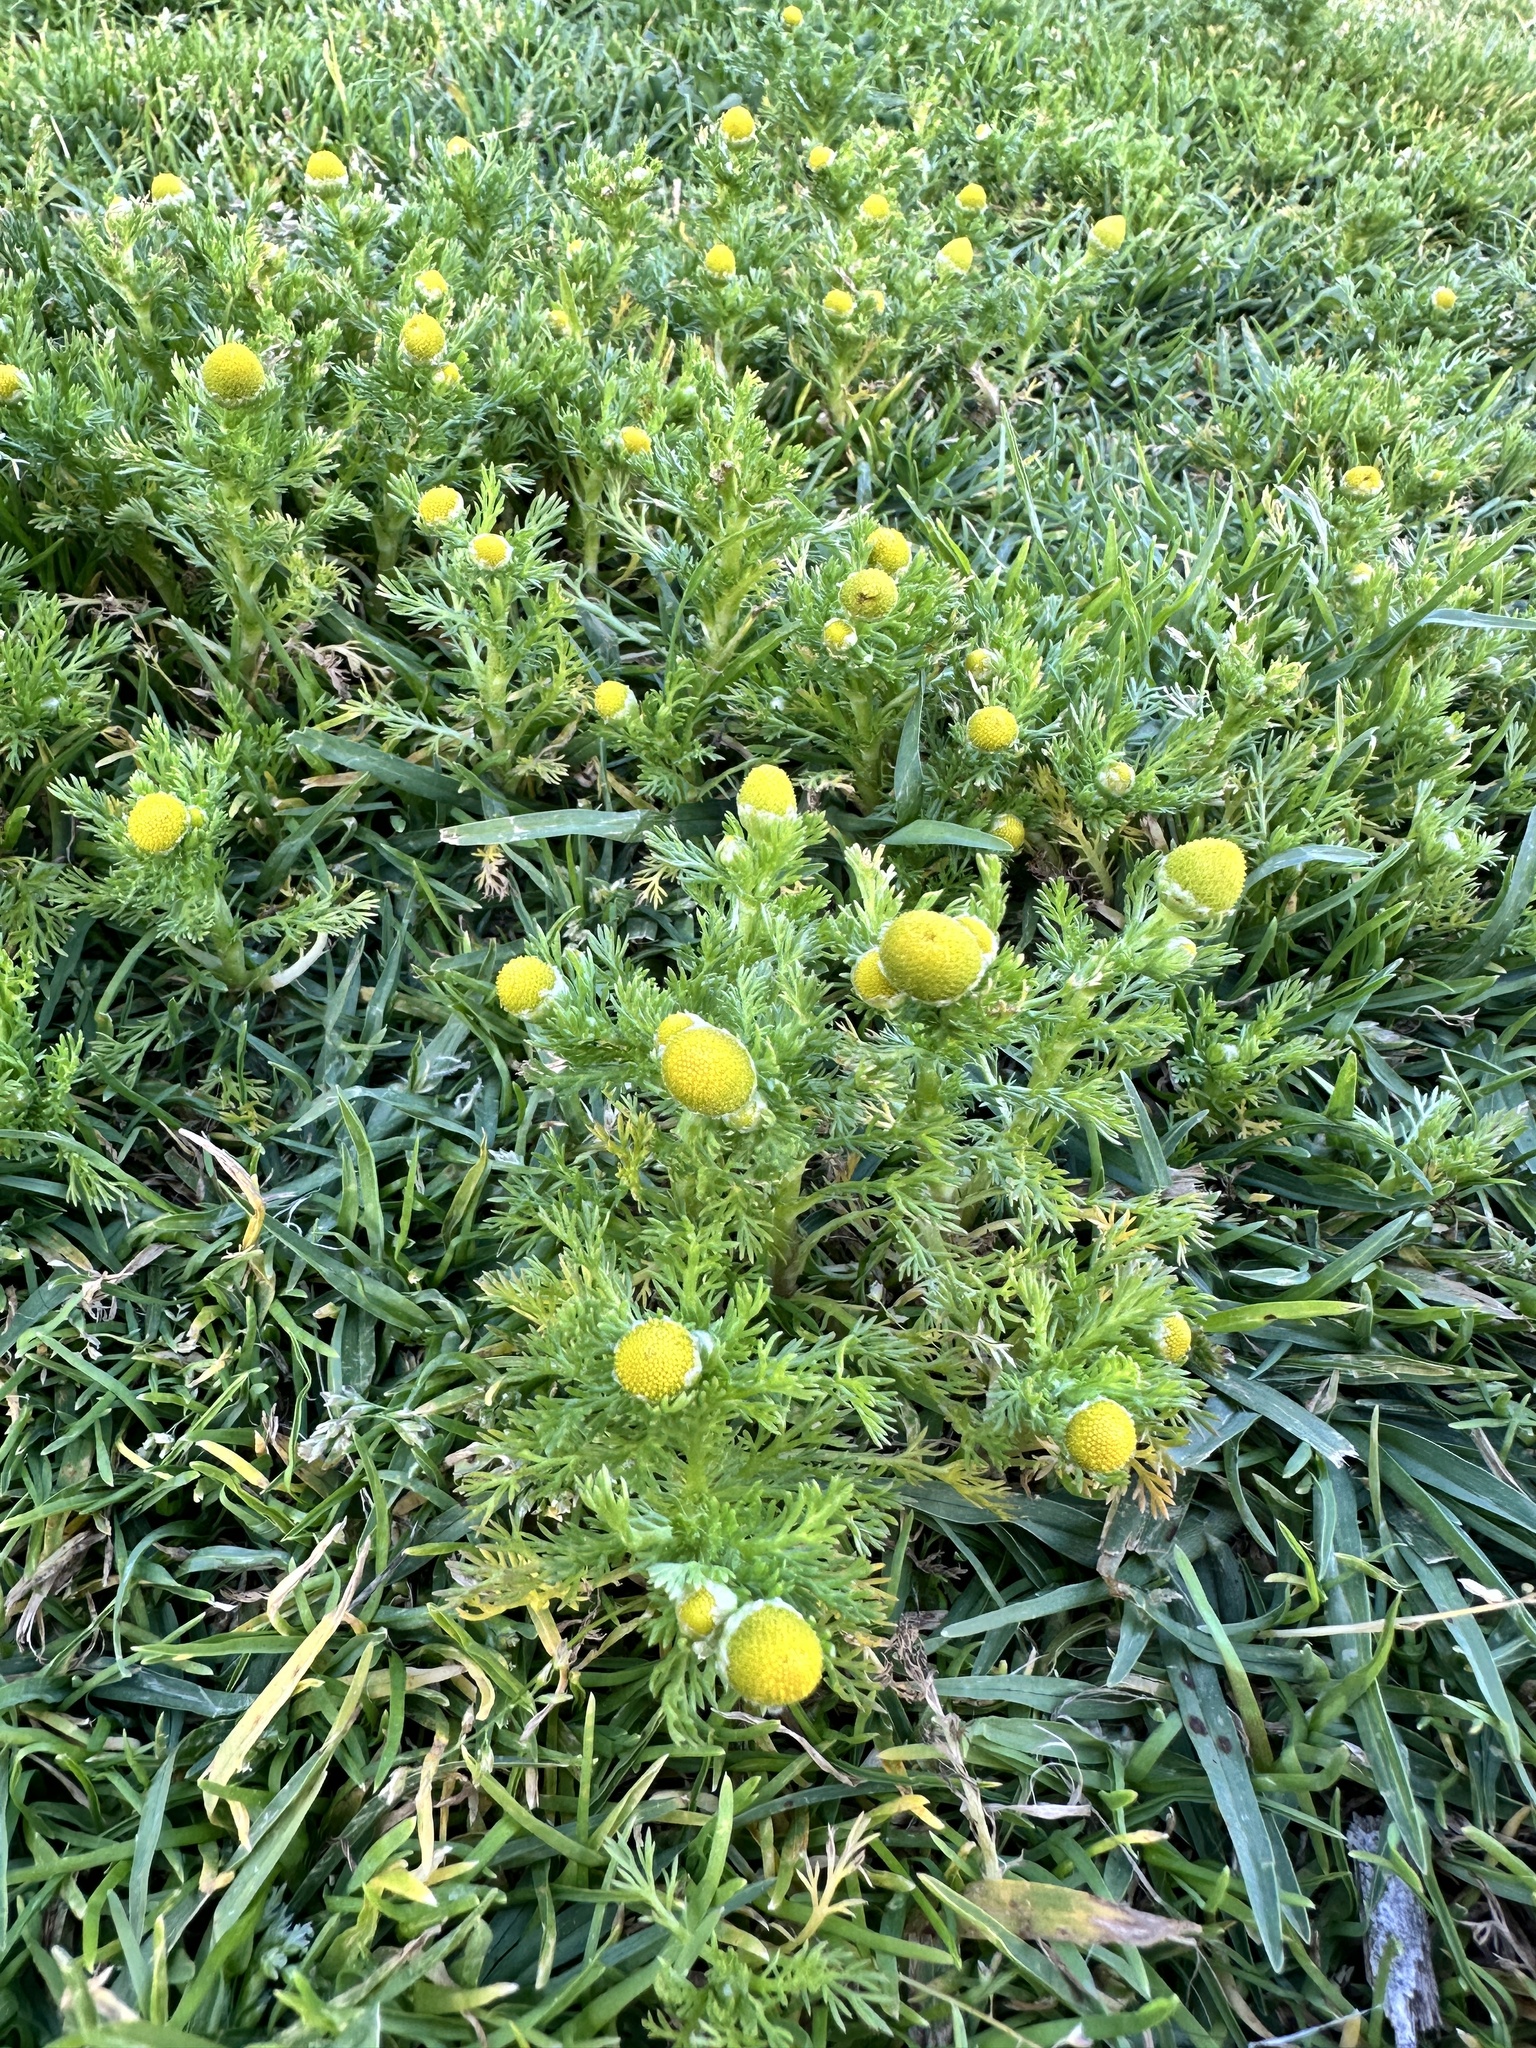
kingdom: Plantae
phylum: Tracheophyta
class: Magnoliopsida
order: Asterales
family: Asteraceae
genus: Matricaria
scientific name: Matricaria discoidea
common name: Disc mayweed
